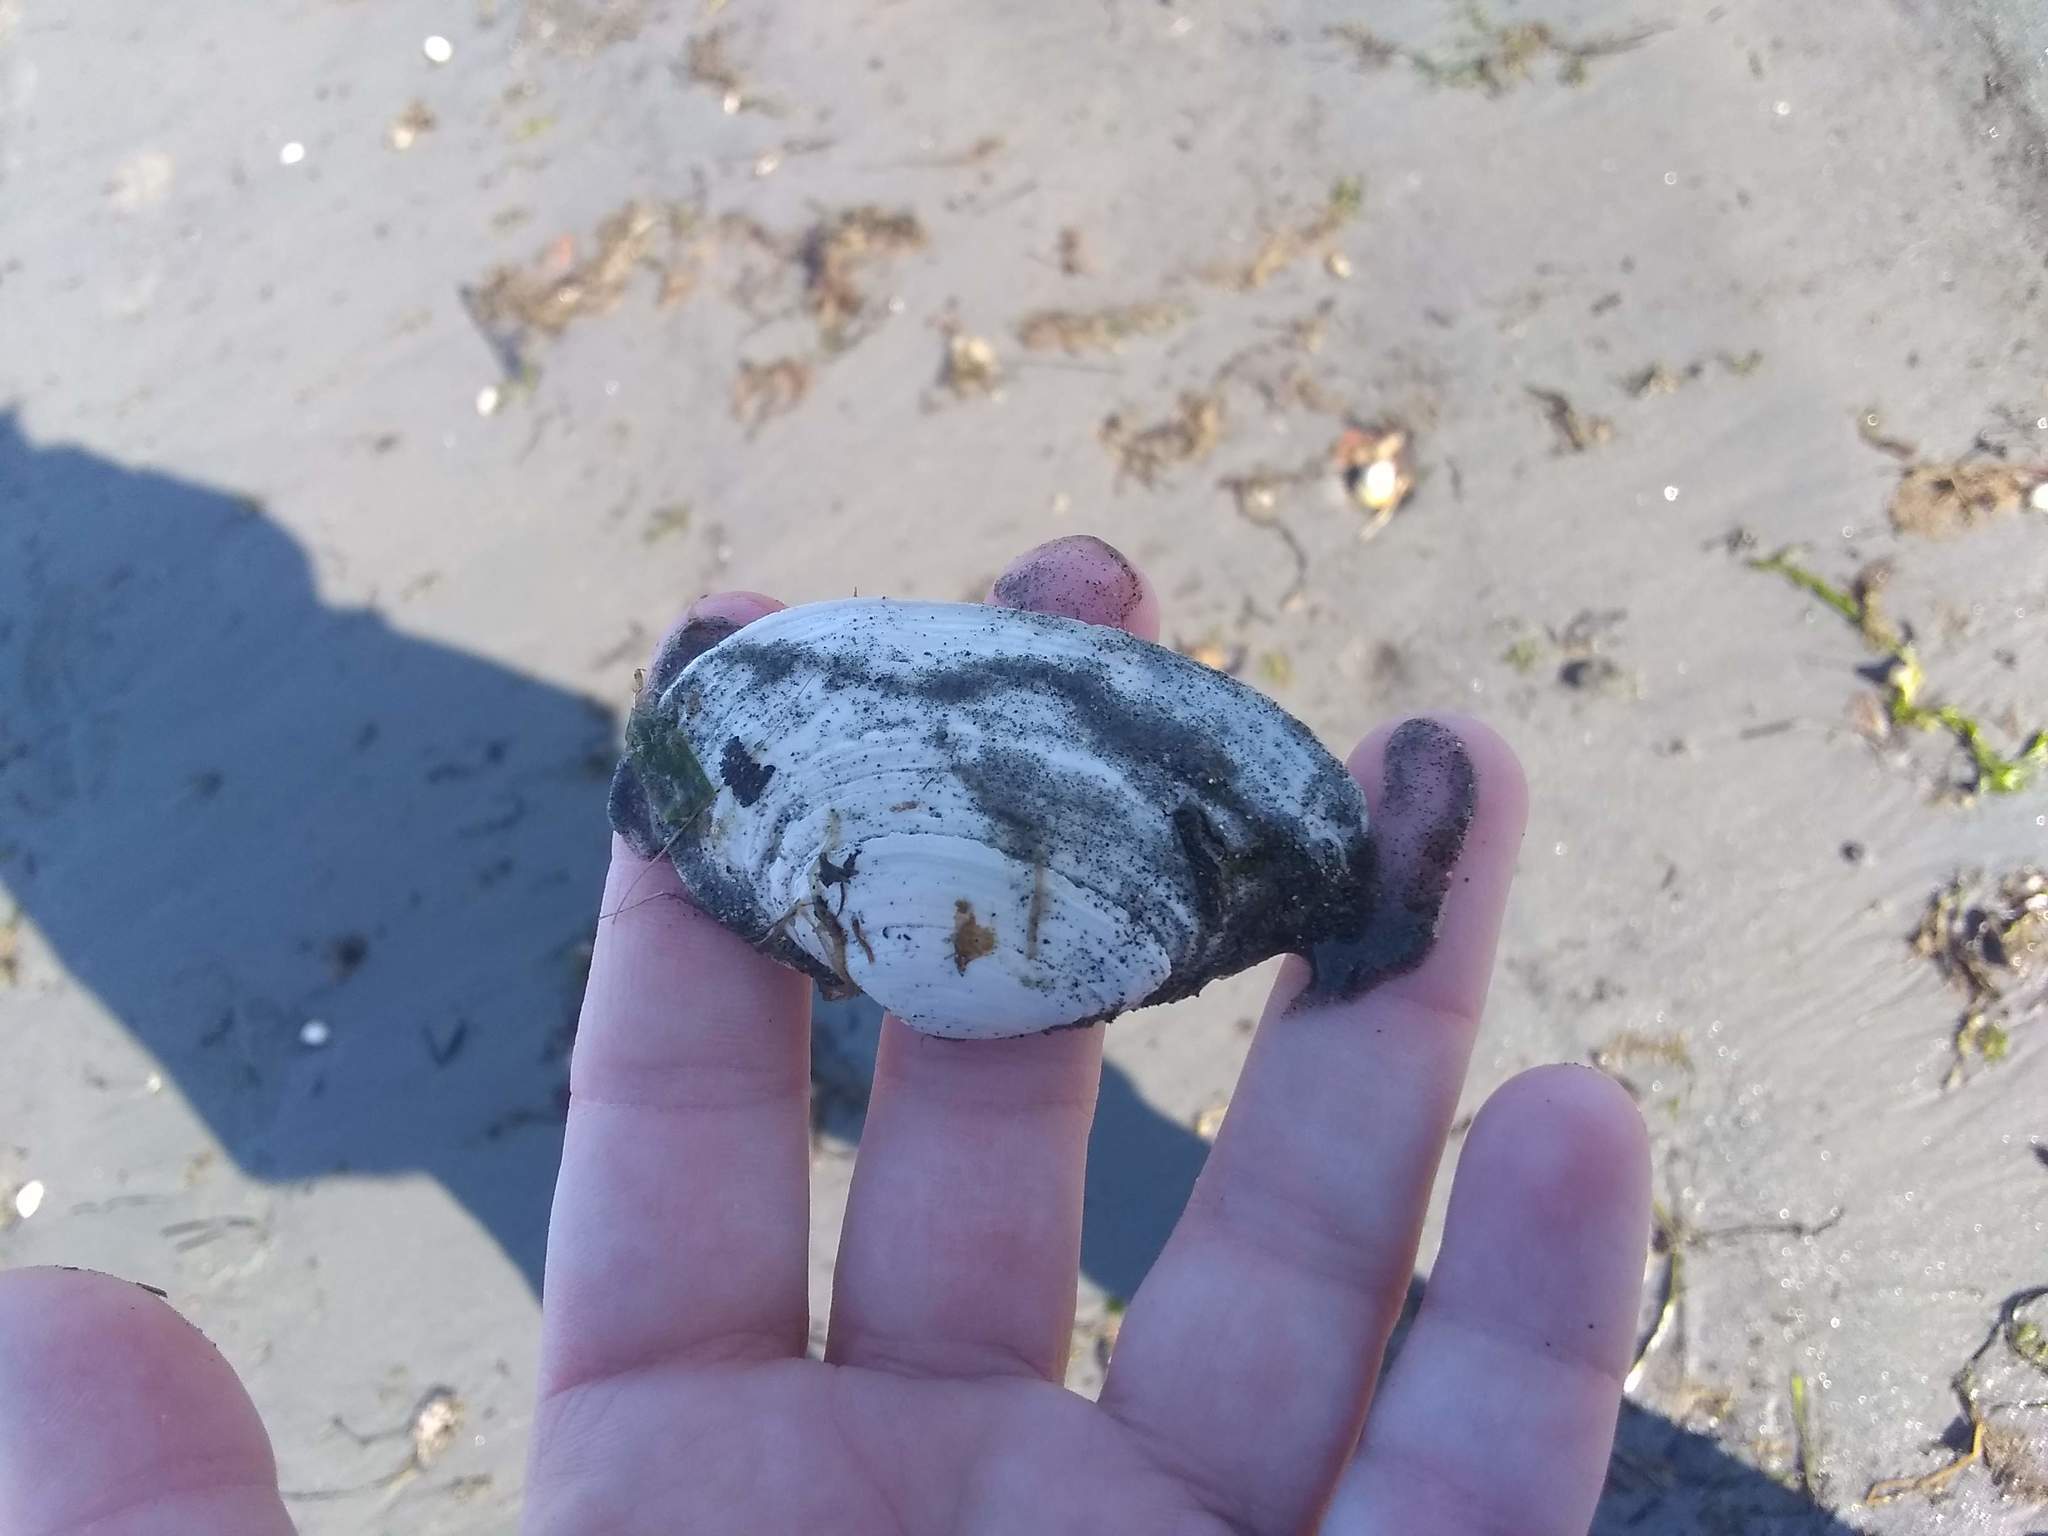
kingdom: Animalia
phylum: Mollusca
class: Bivalvia
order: Myida
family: Myidae
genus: Mya
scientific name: Mya arenaria
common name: Soft-shelled clam
